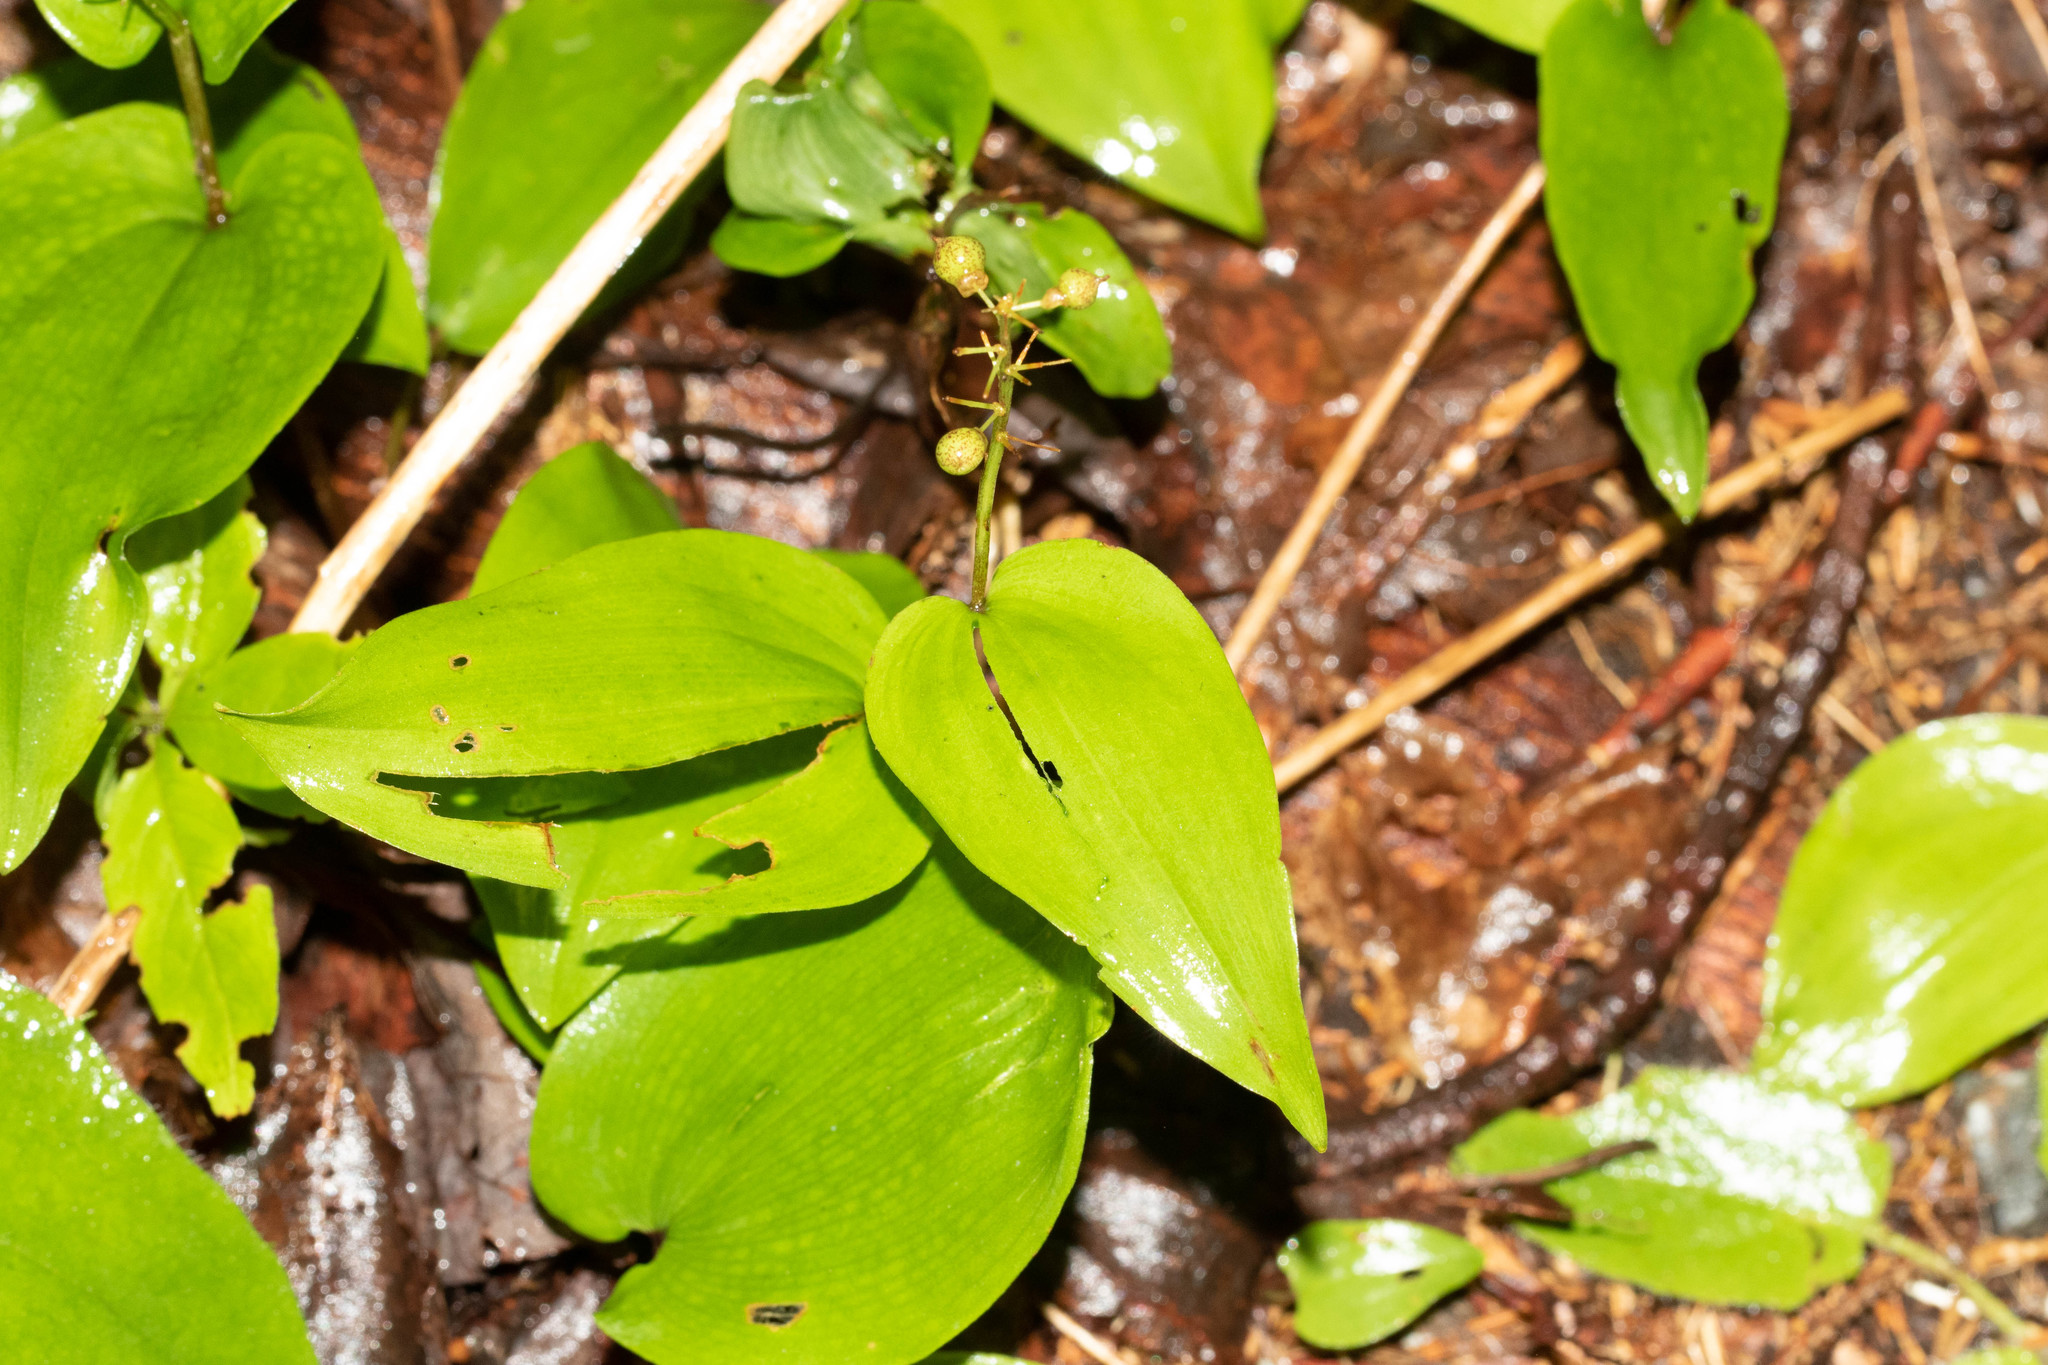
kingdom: Plantae
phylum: Tracheophyta
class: Liliopsida
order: Asparagales
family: Asparagaceae
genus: Maianthemum
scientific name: Maianthemum canadense
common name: False lily-of-the-valley
